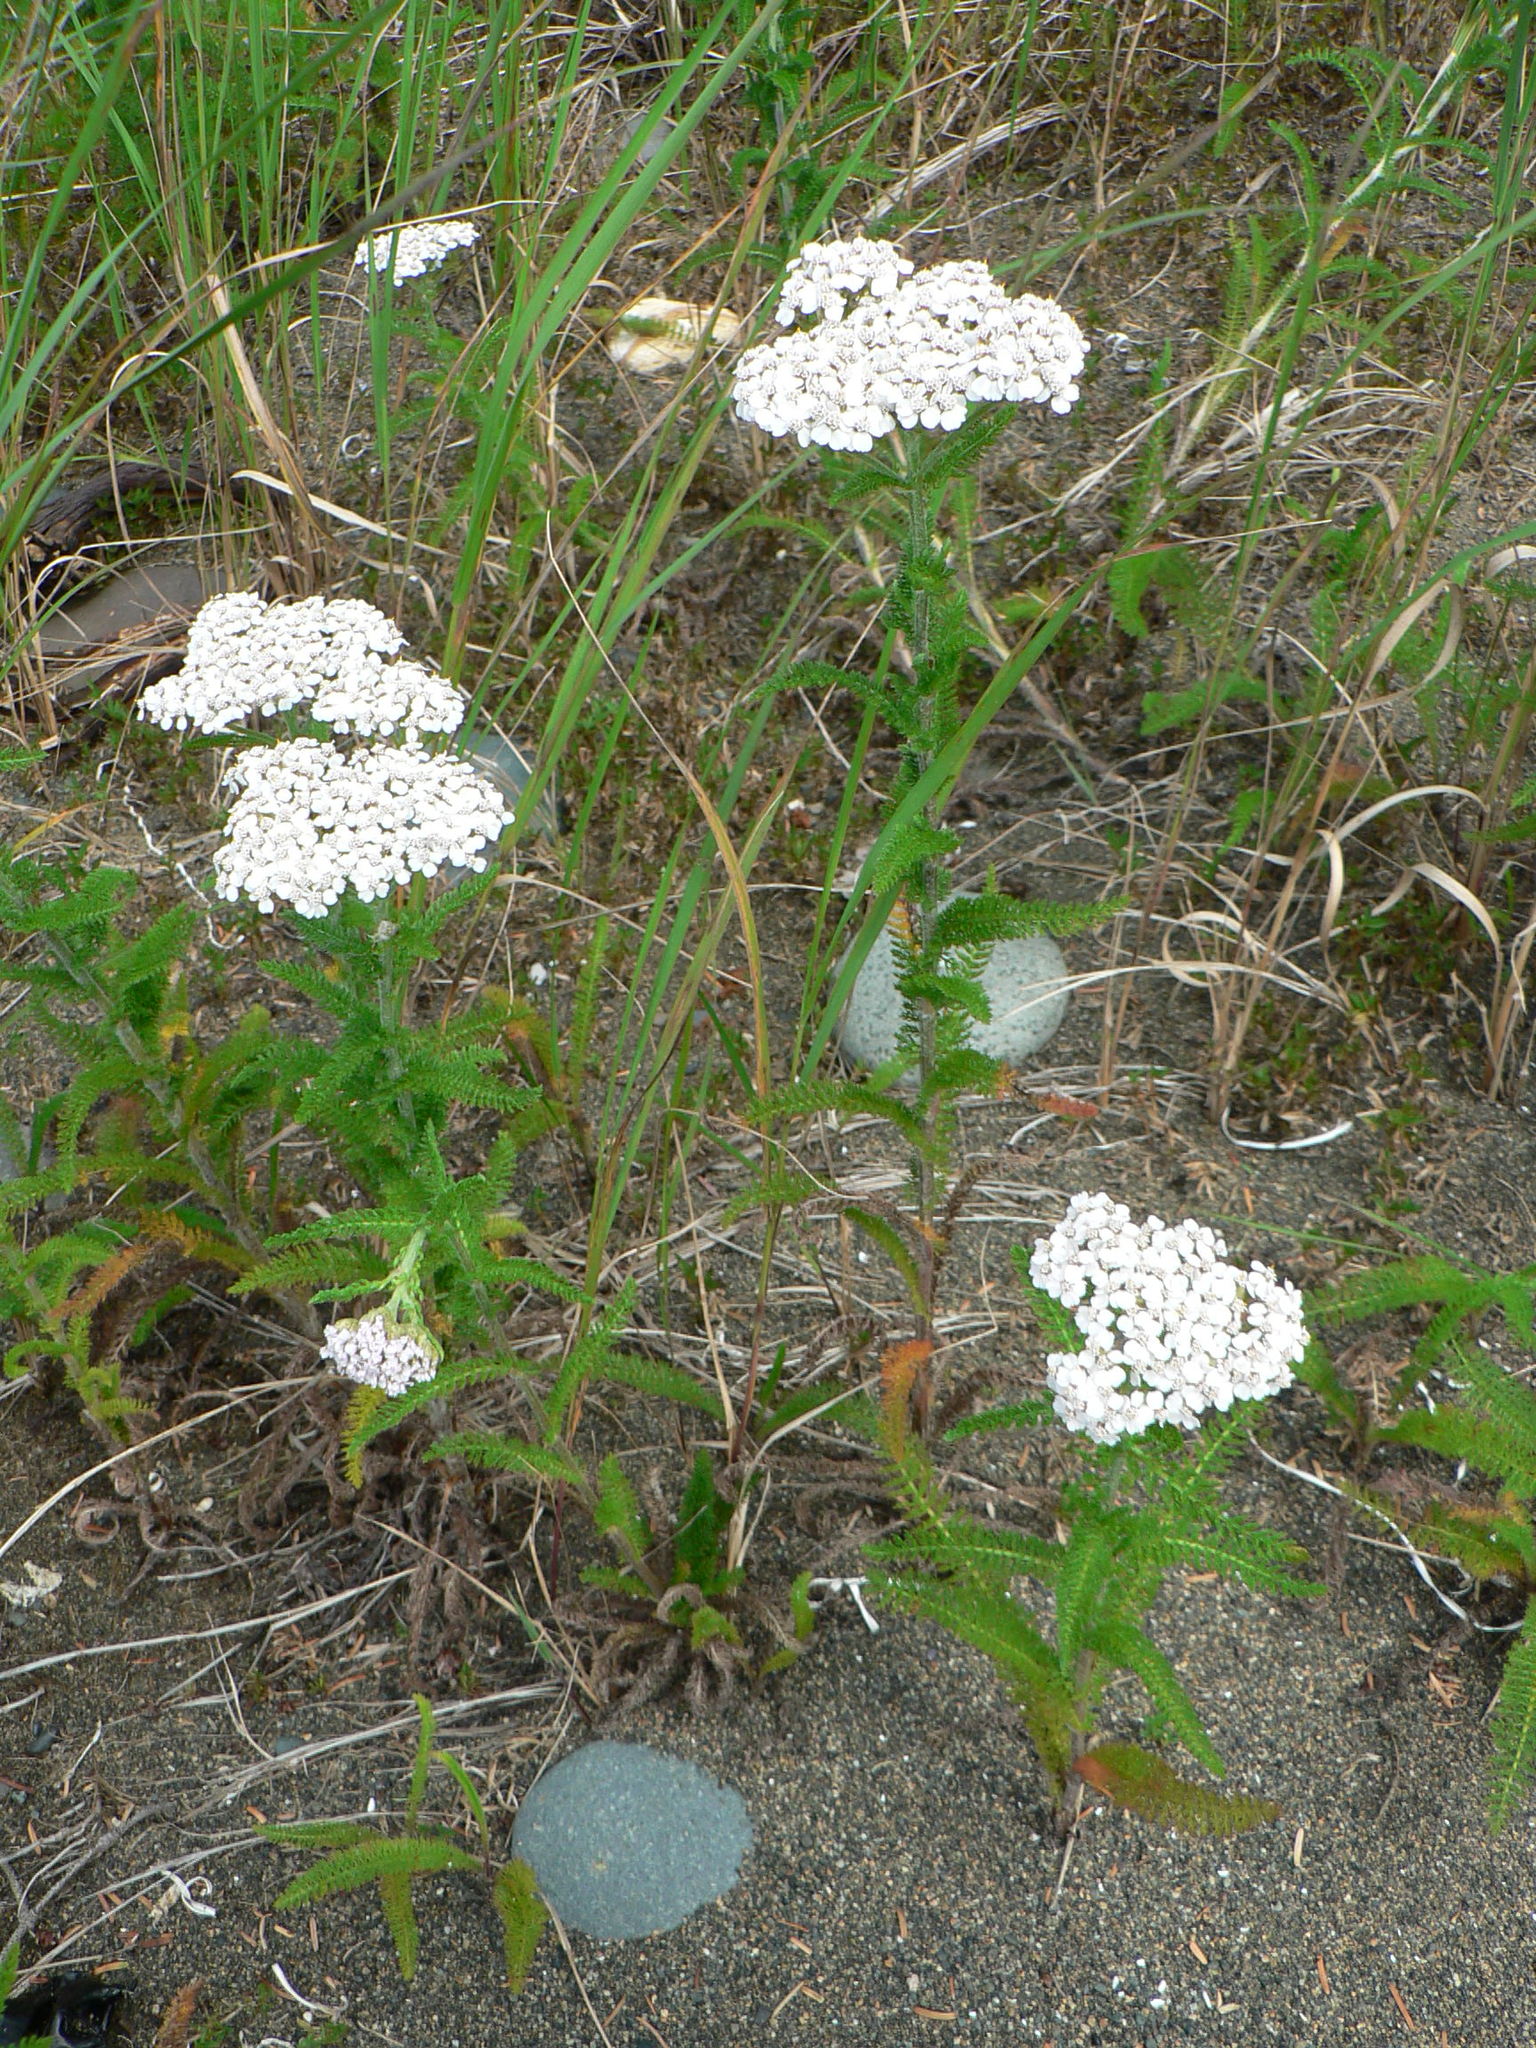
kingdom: Plantae
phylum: Tracheophyta
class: Magnoliopsida
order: Asterales
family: Asteraceae
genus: Achillea
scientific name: Achillea millefolium
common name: Yarrow
